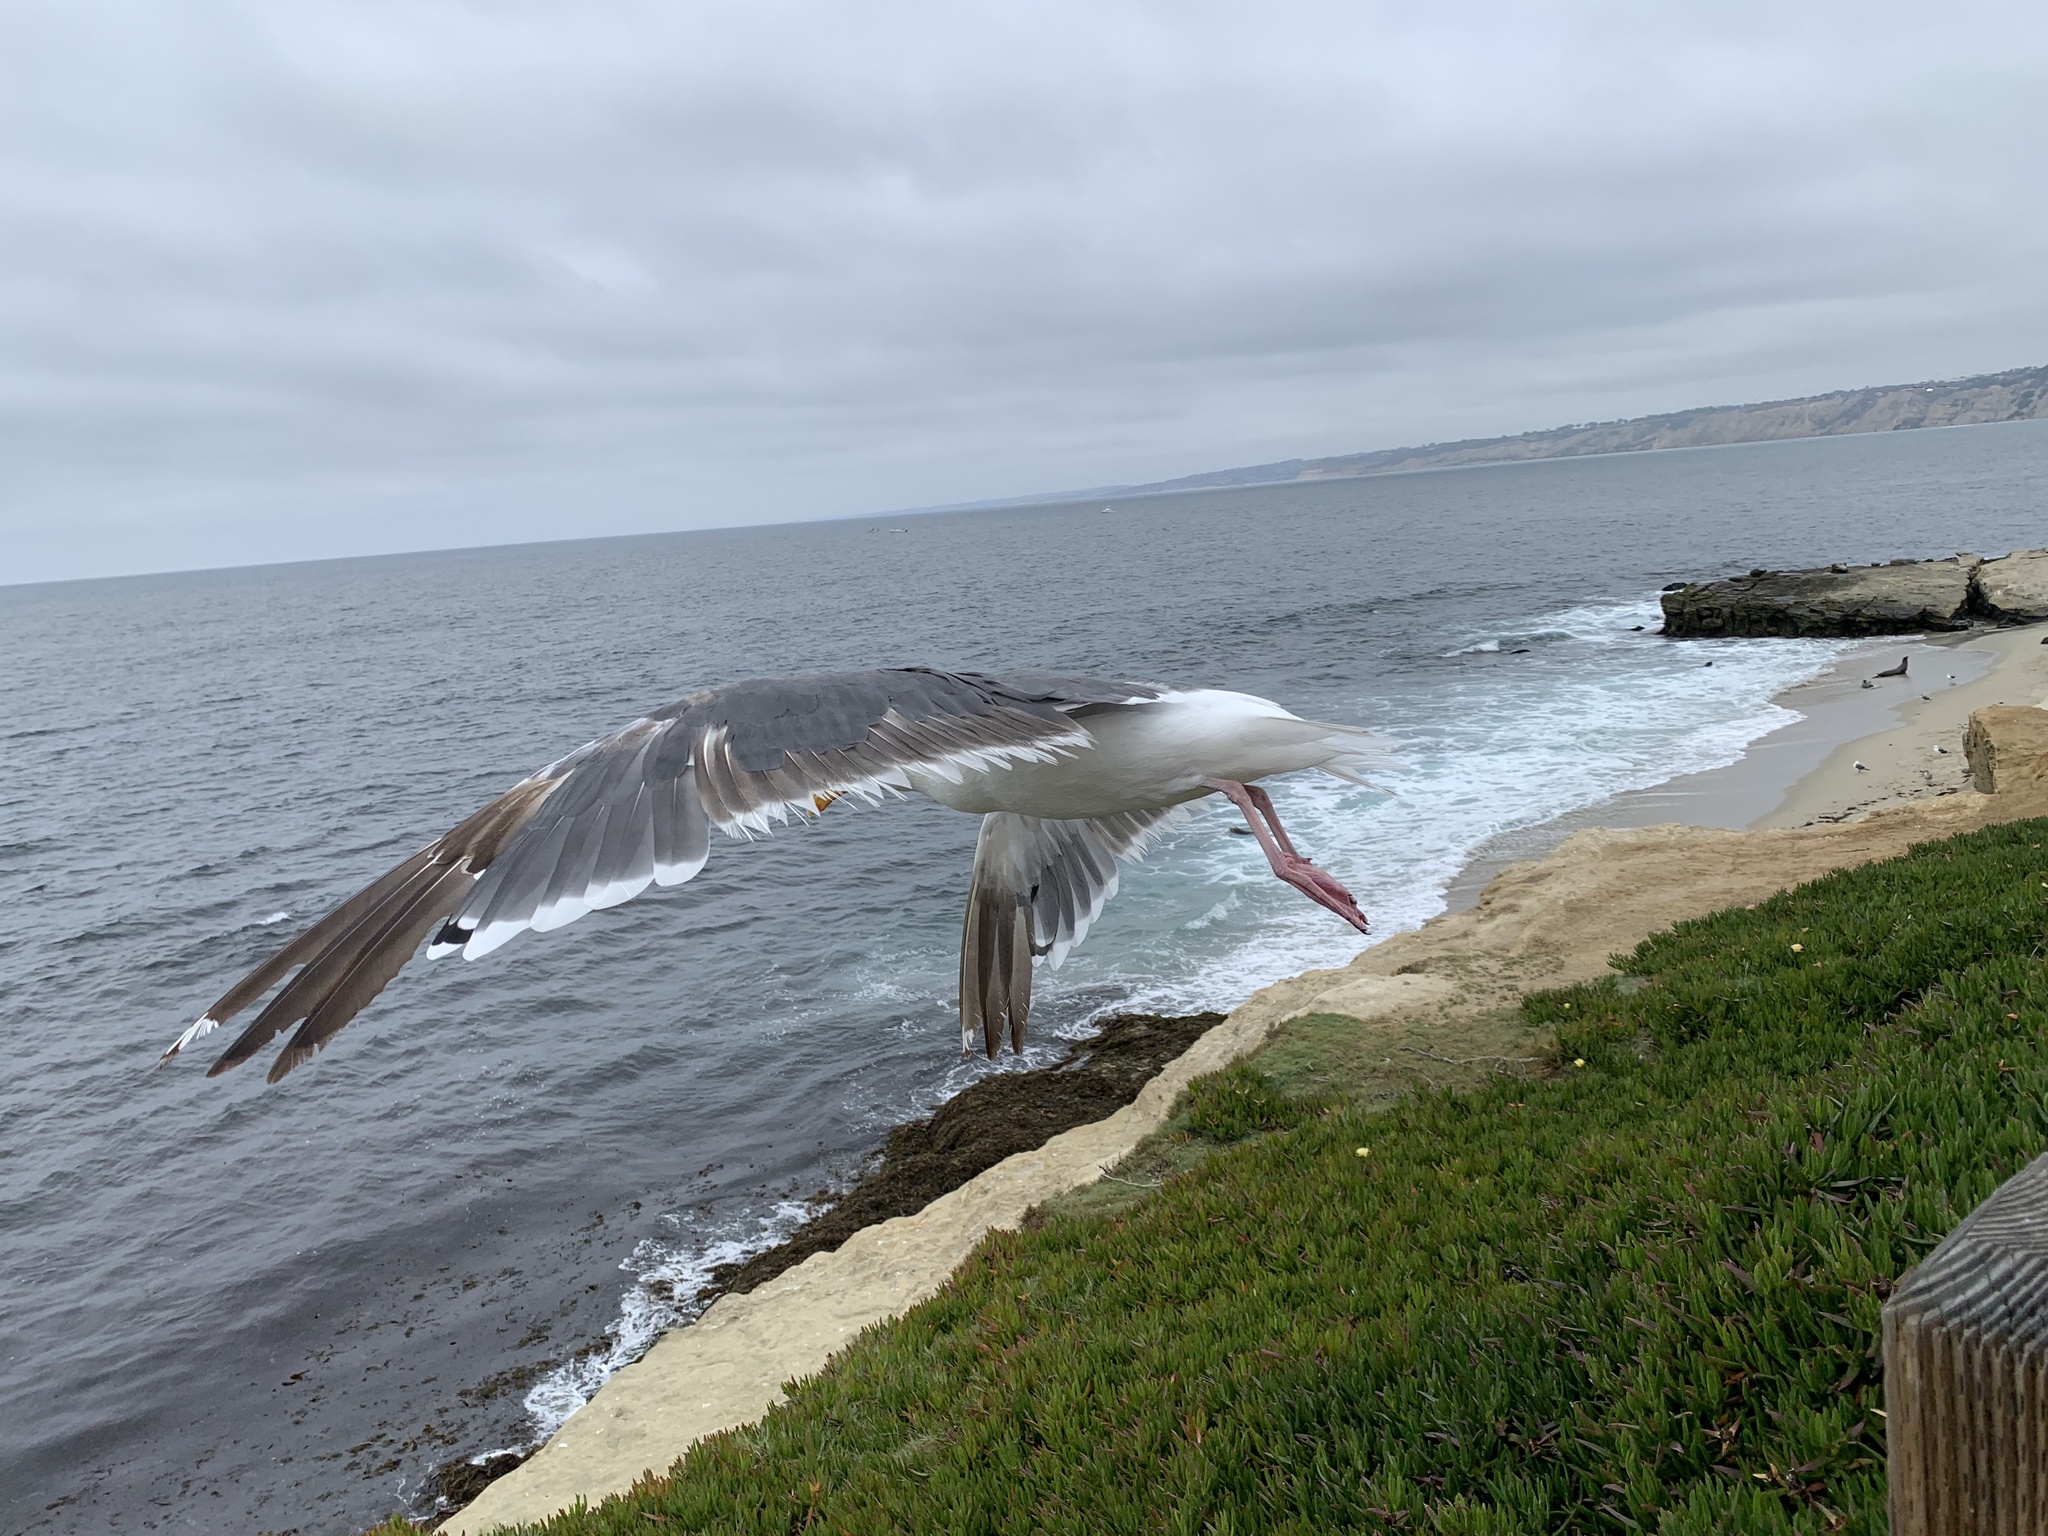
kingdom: Animalia
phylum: Chordata
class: Aves
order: Charadriiformes
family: Laridae
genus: Larus
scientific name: Larus occidentalis
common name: Western gull
